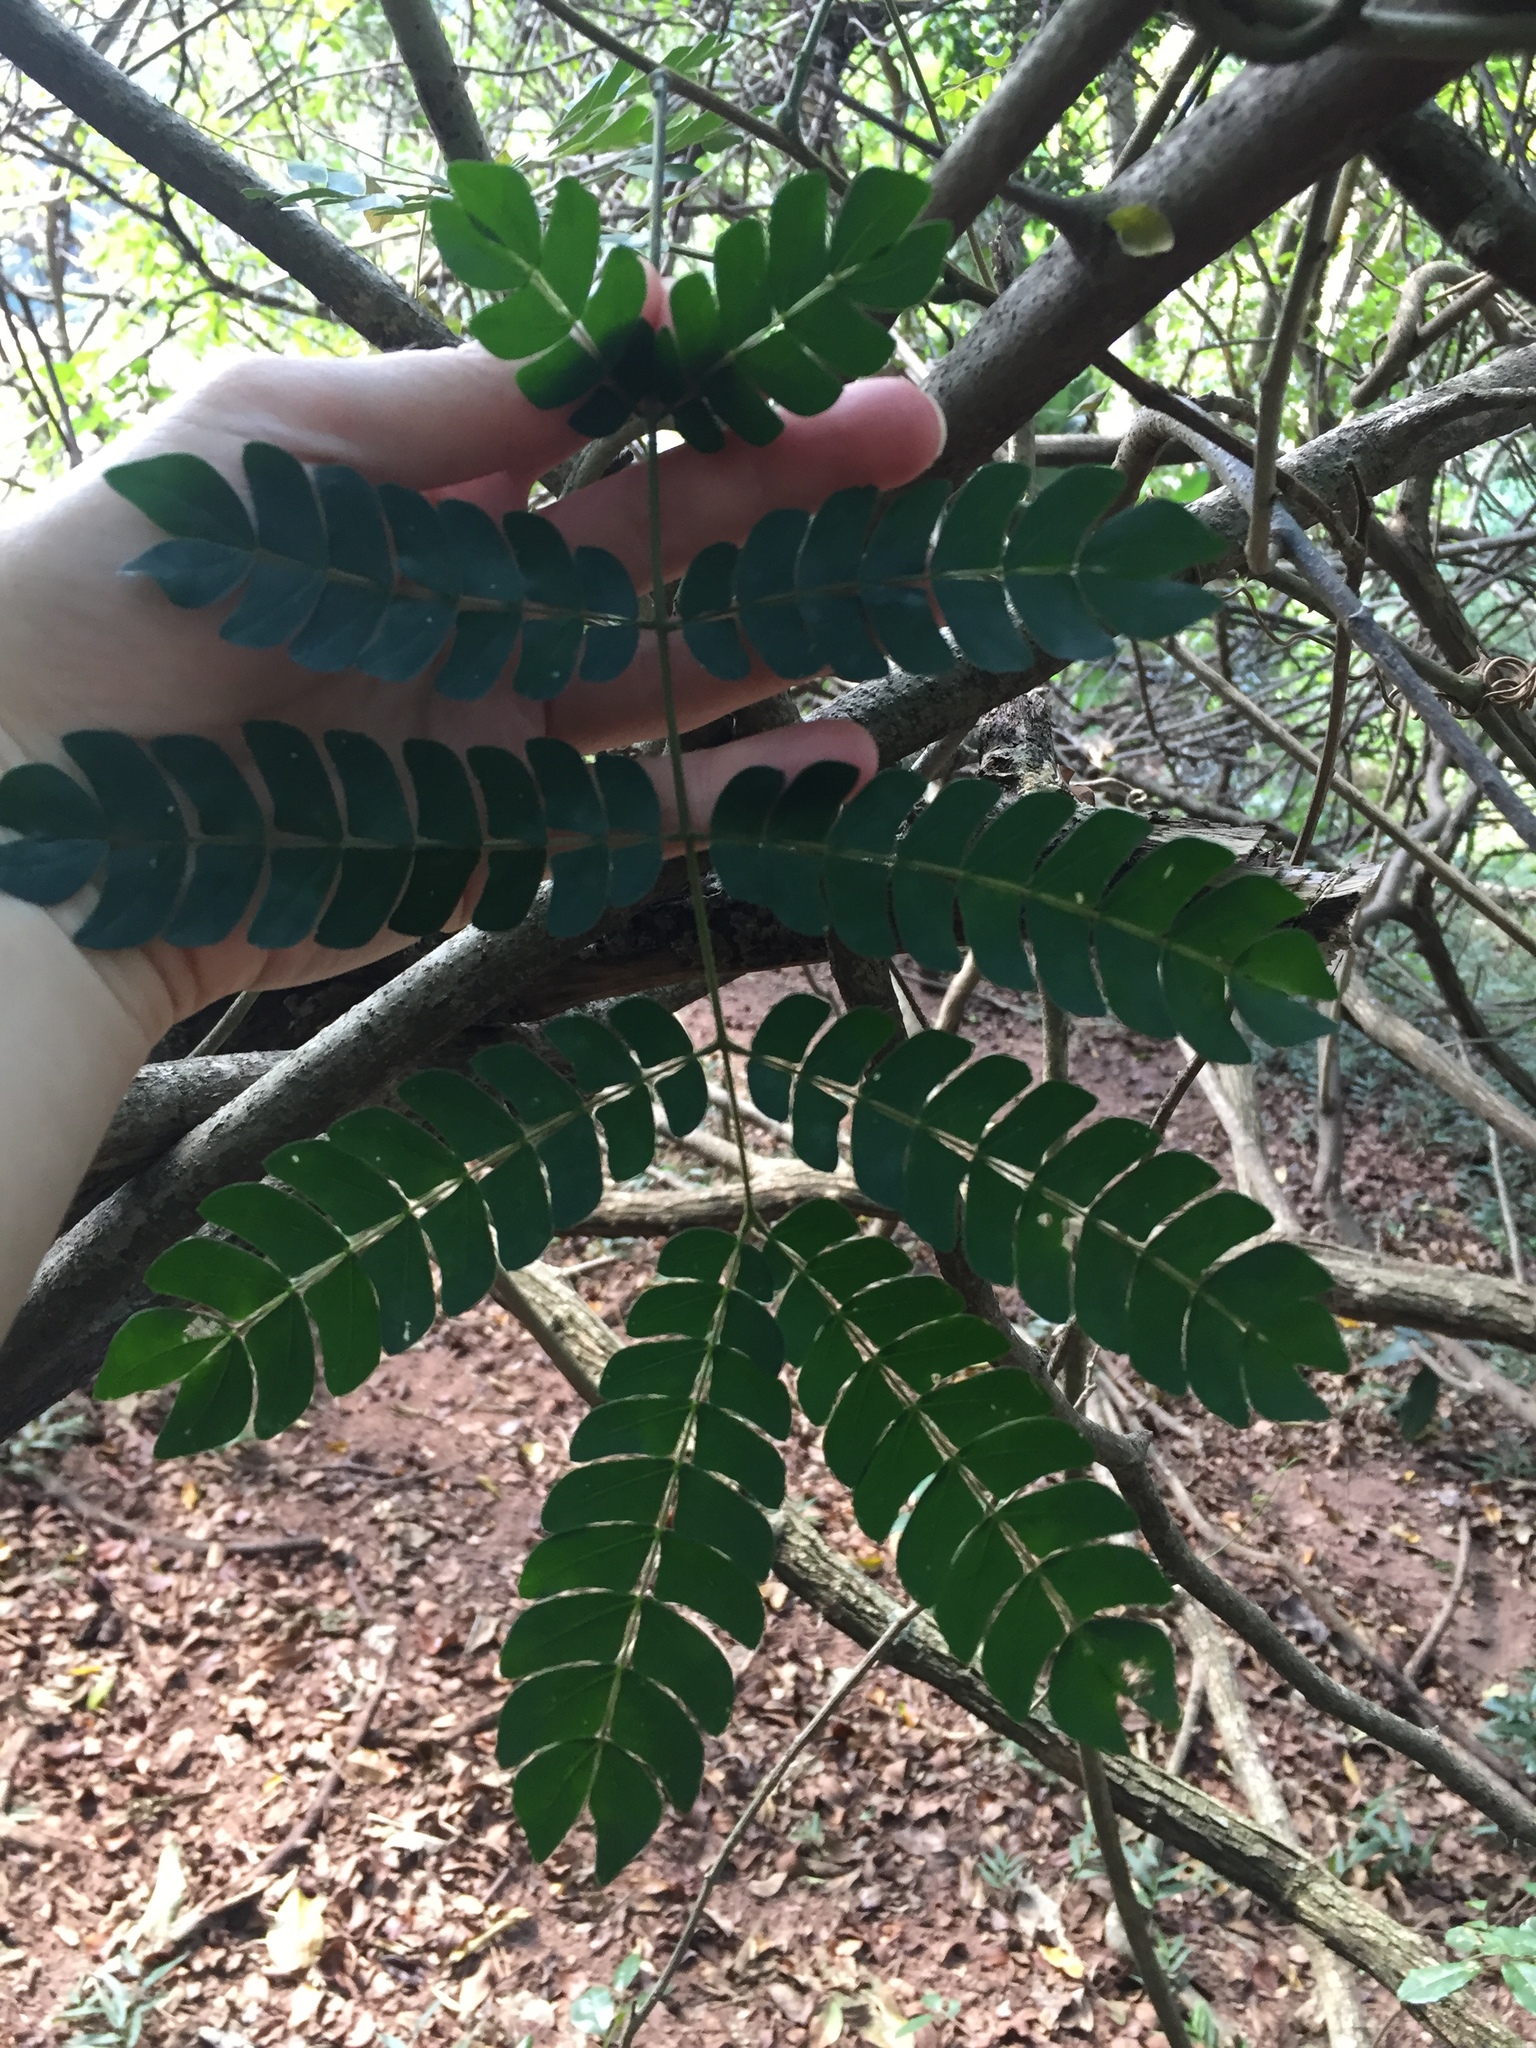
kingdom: Plantae
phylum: Tracheophyta
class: Magnoliopsida
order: Fabales
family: Fabaceae
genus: Albizia
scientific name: Albizia adianthifolia
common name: West african albizia
